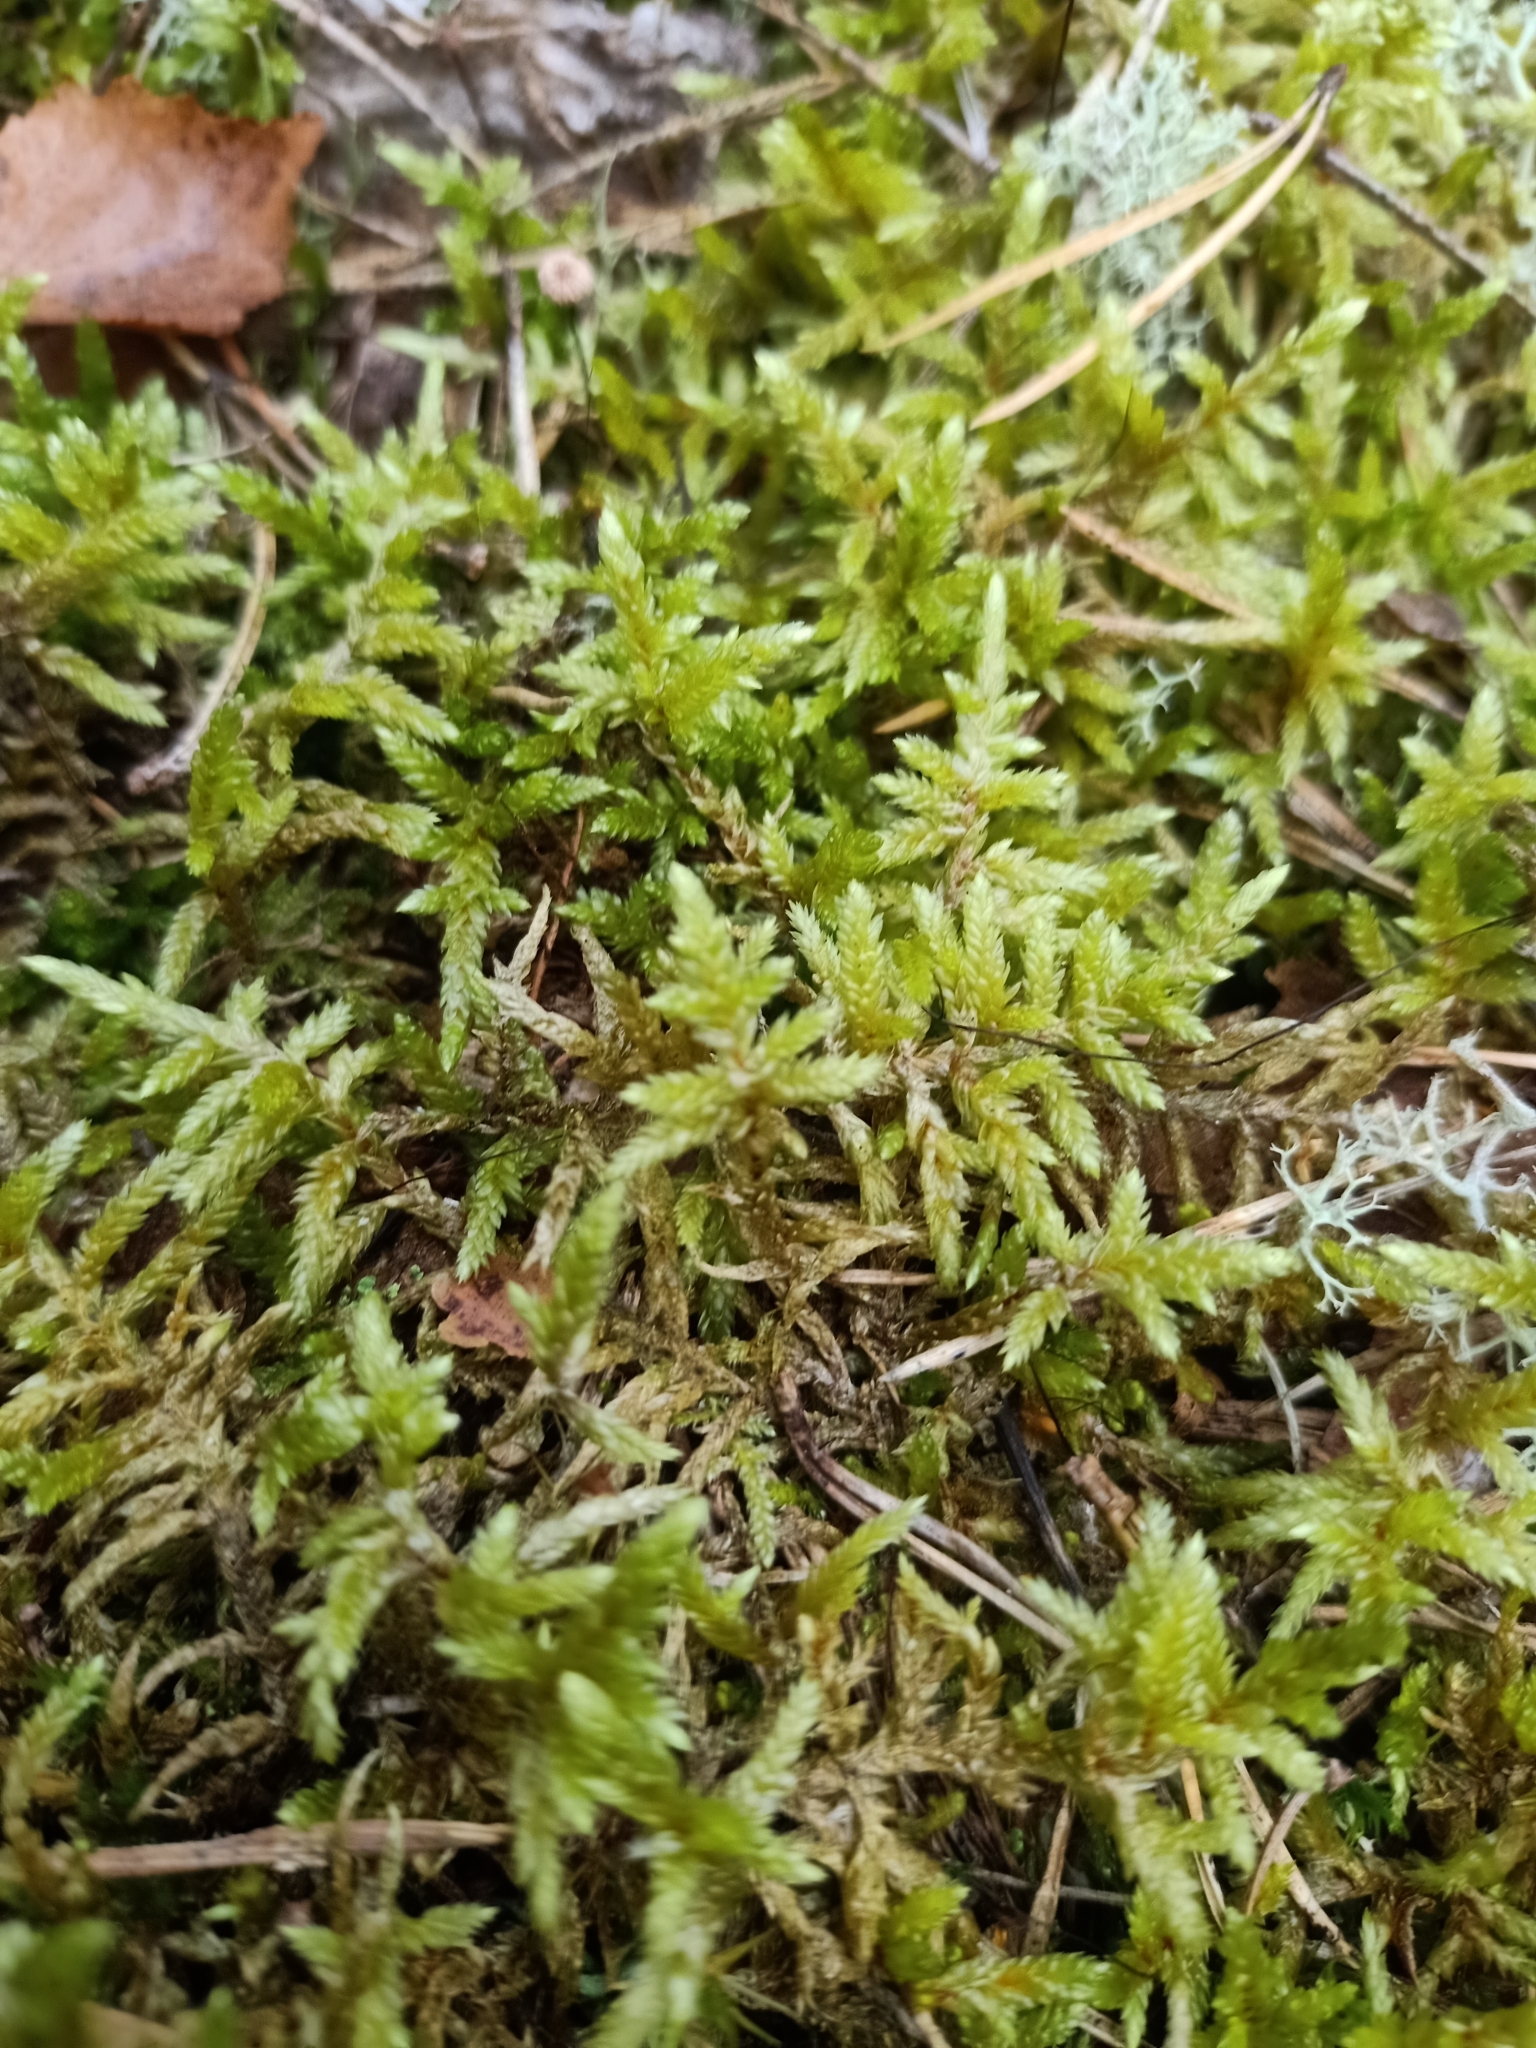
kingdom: Plantae
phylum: Bryophyta
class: Bryopsida
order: Hypnales
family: Hylocomiaceae
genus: Pleurozium
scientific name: Pleurozium schreberi
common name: Red-stemmed feather moss
